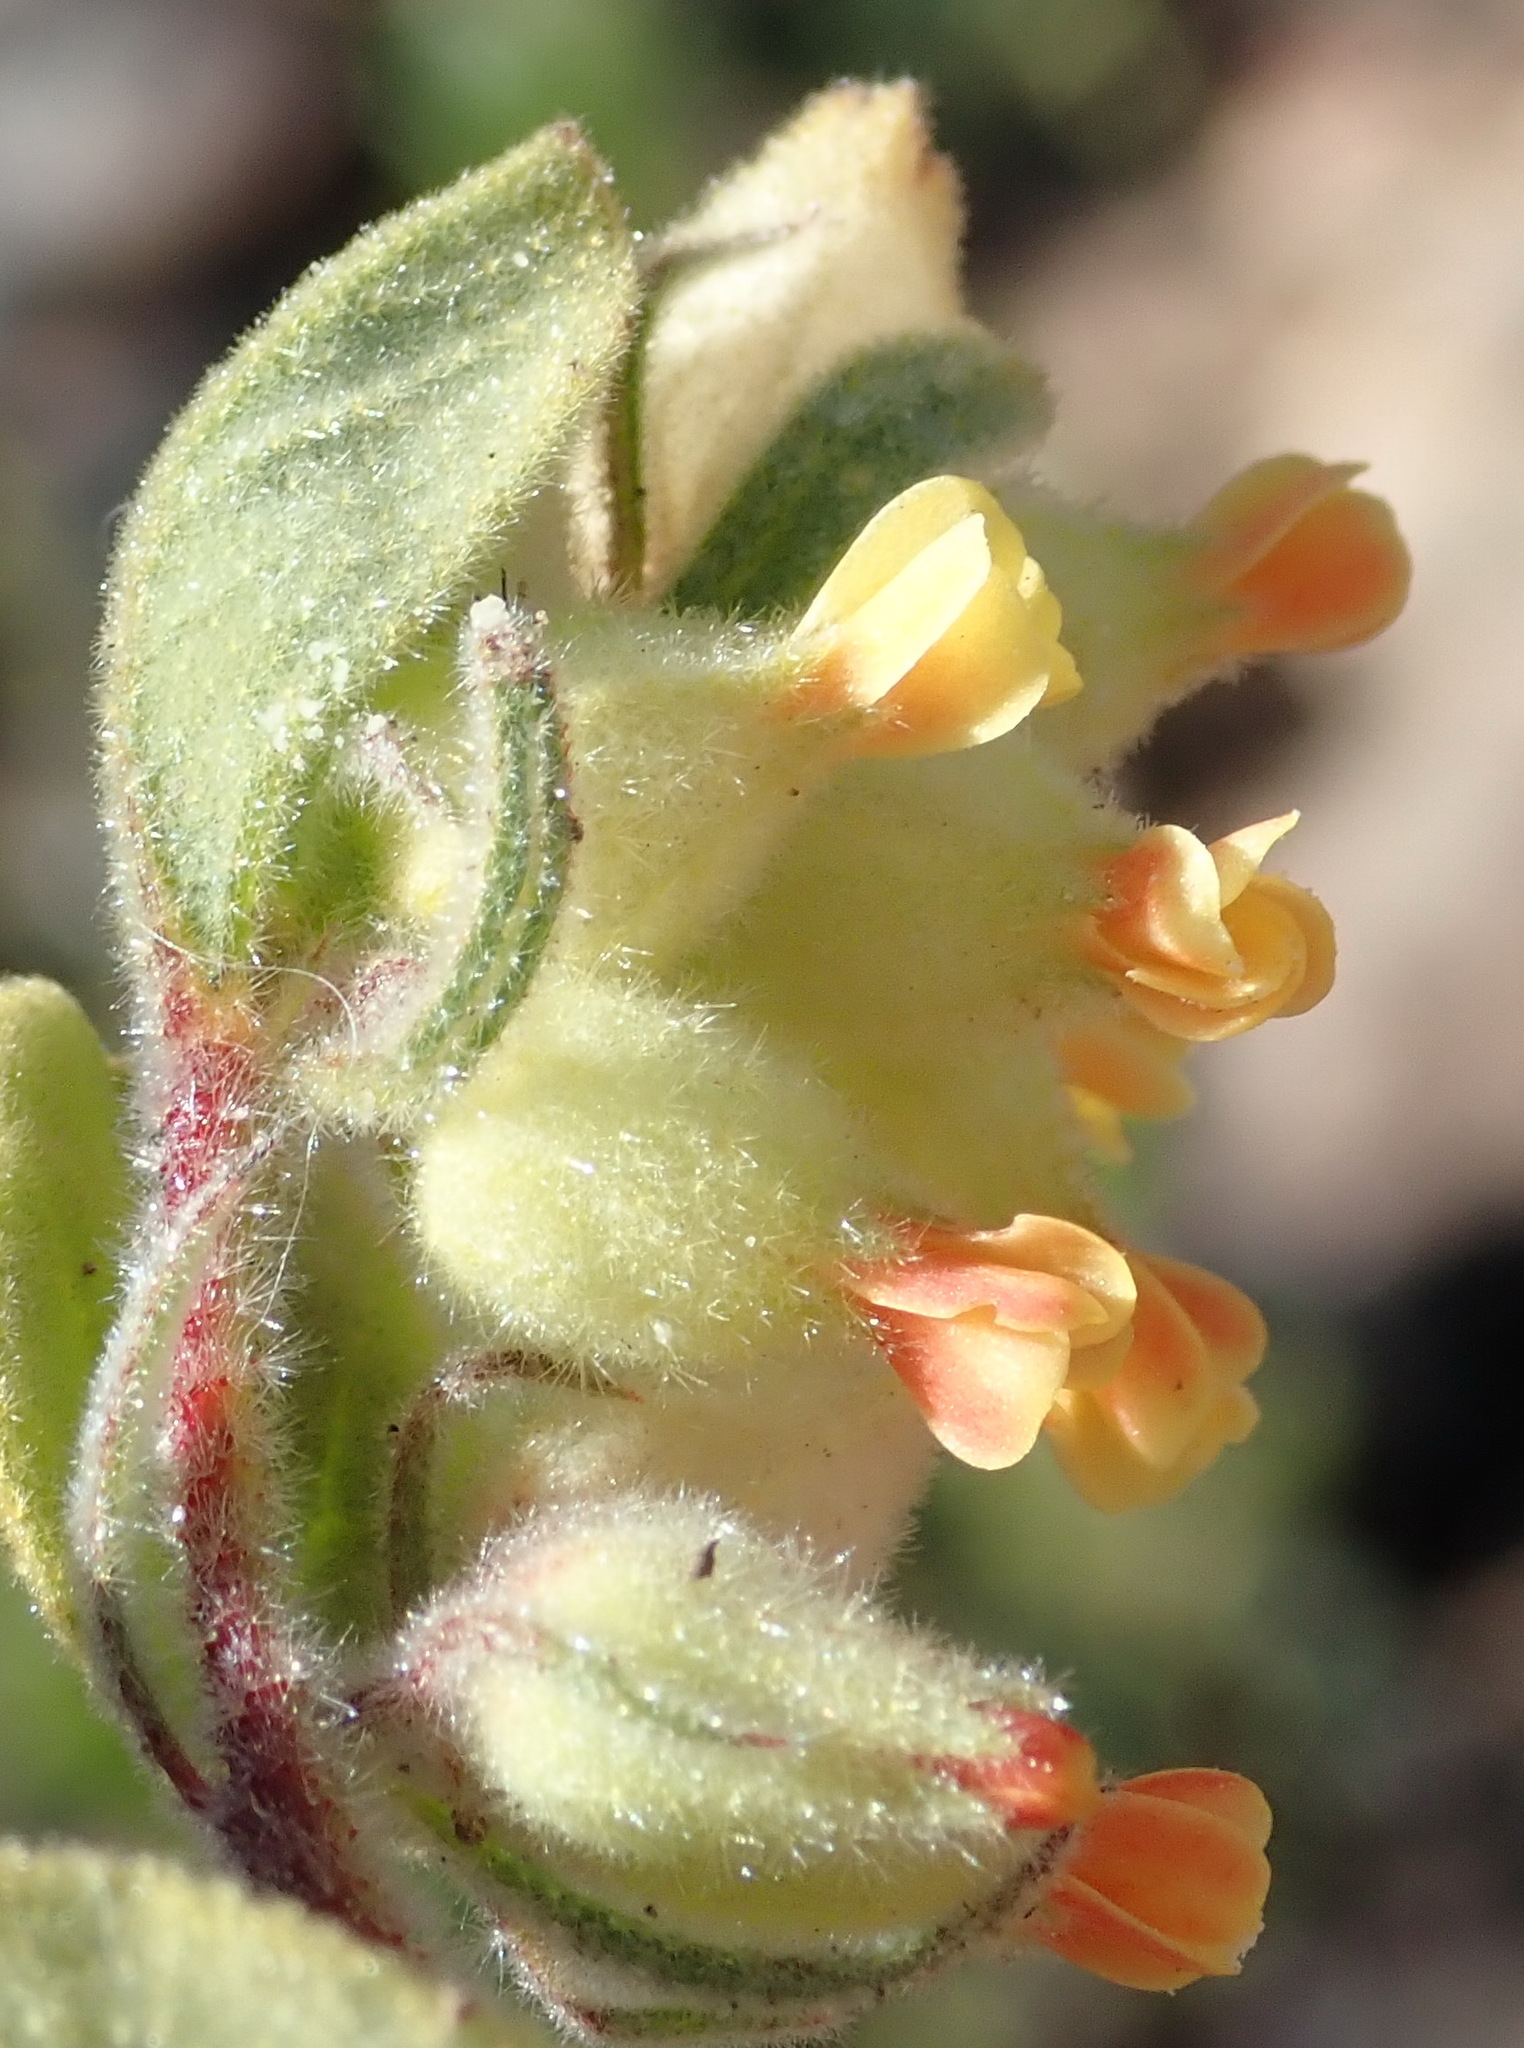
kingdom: Plantae
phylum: Tracheophyta
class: Magnoliopsida
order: Malvales
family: Malvaceae
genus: Hermannia
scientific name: Hermannia salviifolia
